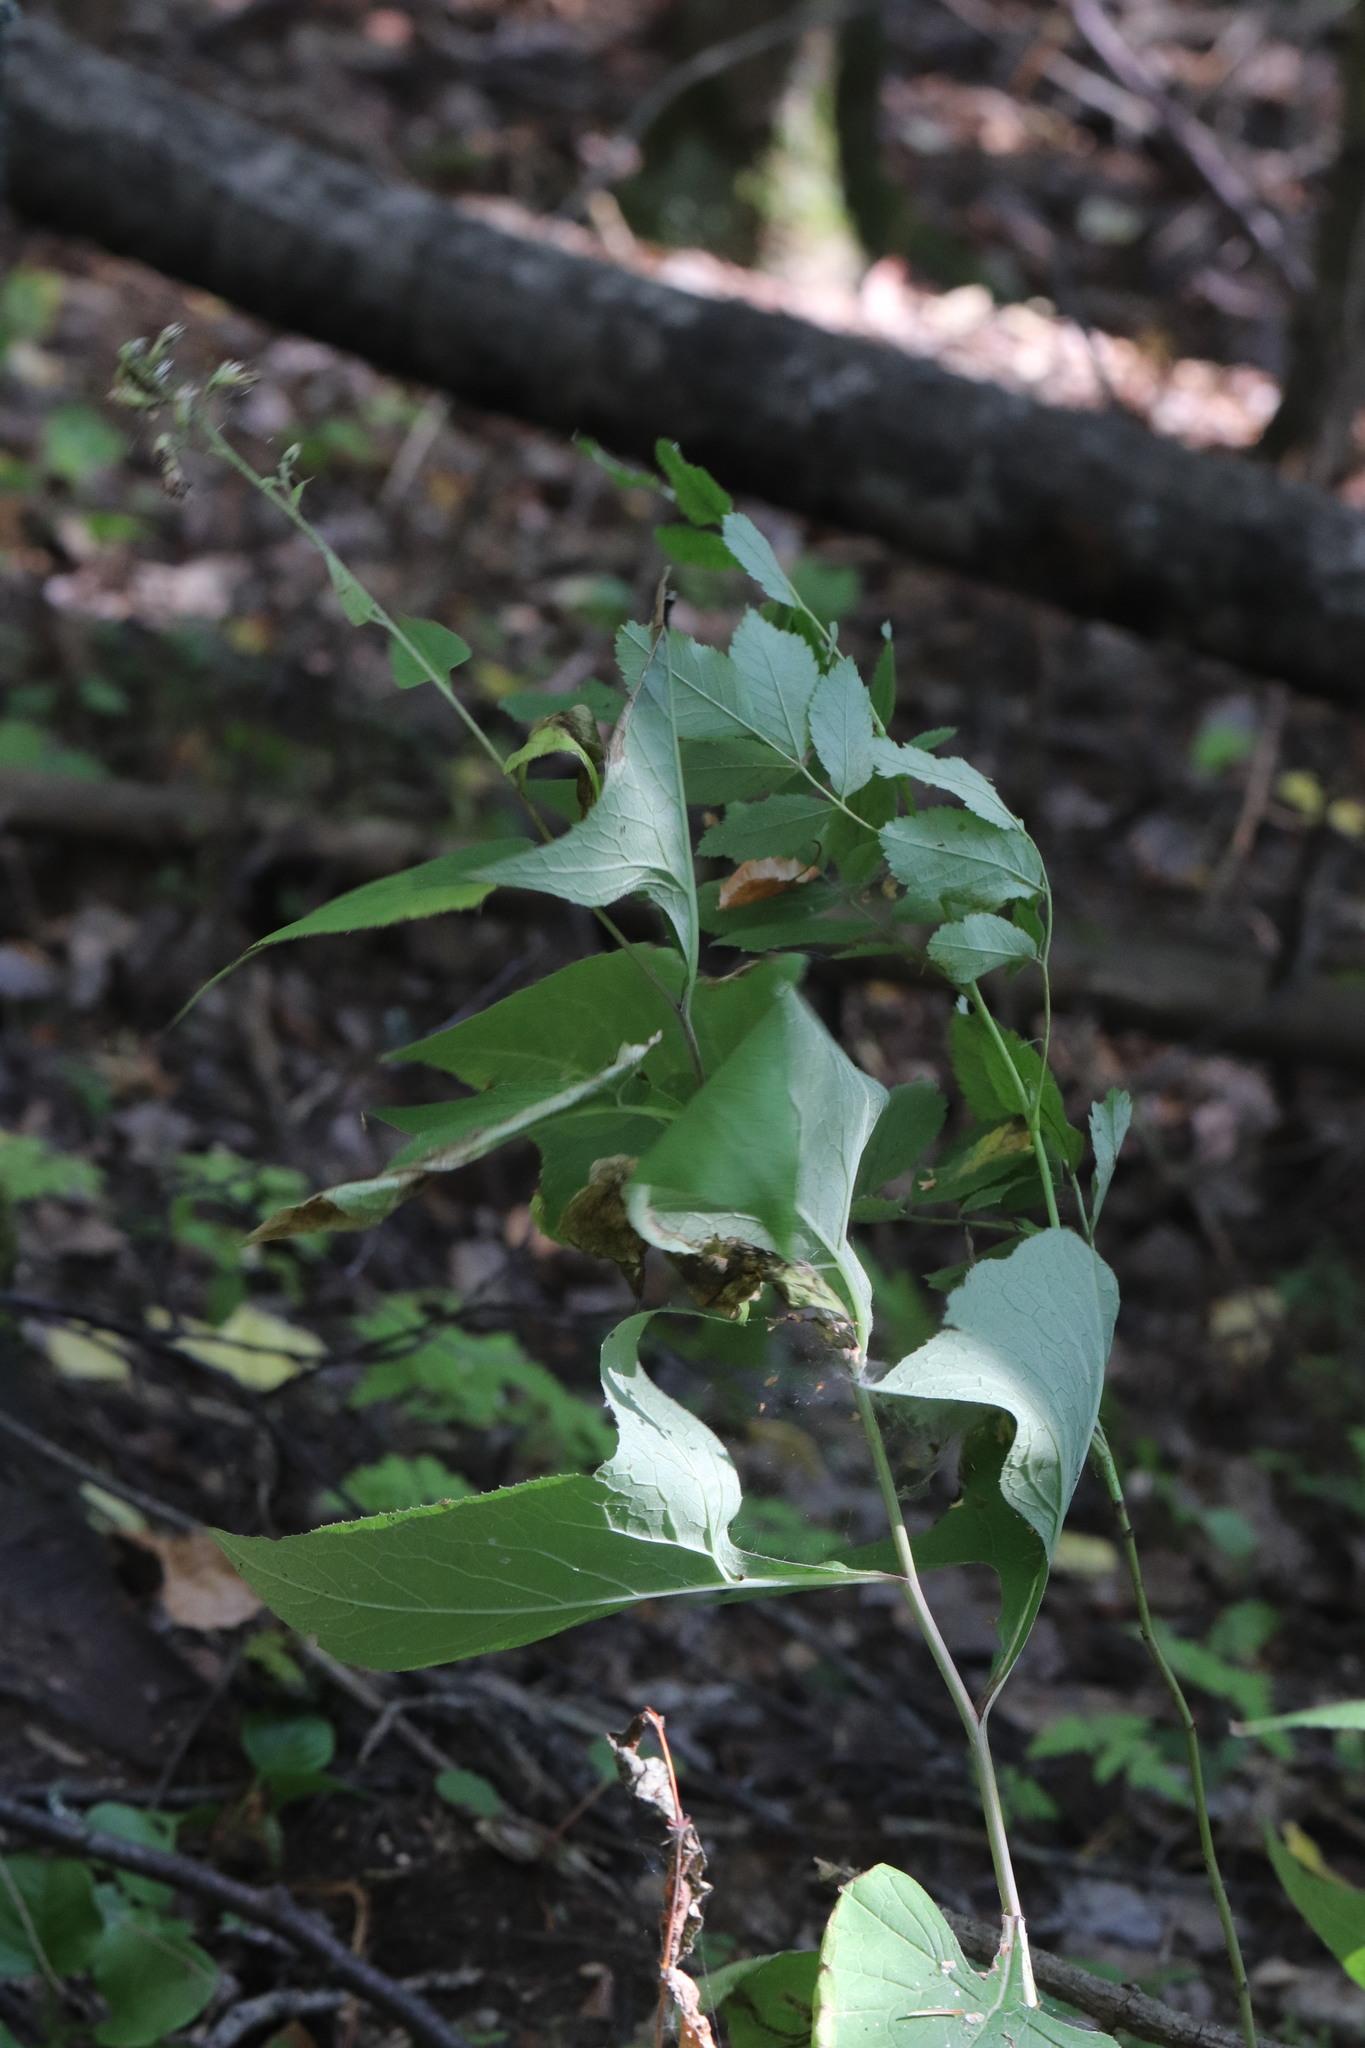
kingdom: Plantae
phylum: Tracheophyta
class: Magnoliopsida
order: Asterales
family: Asteraceae
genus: Parasenecio
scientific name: Parasenecio hastatus
